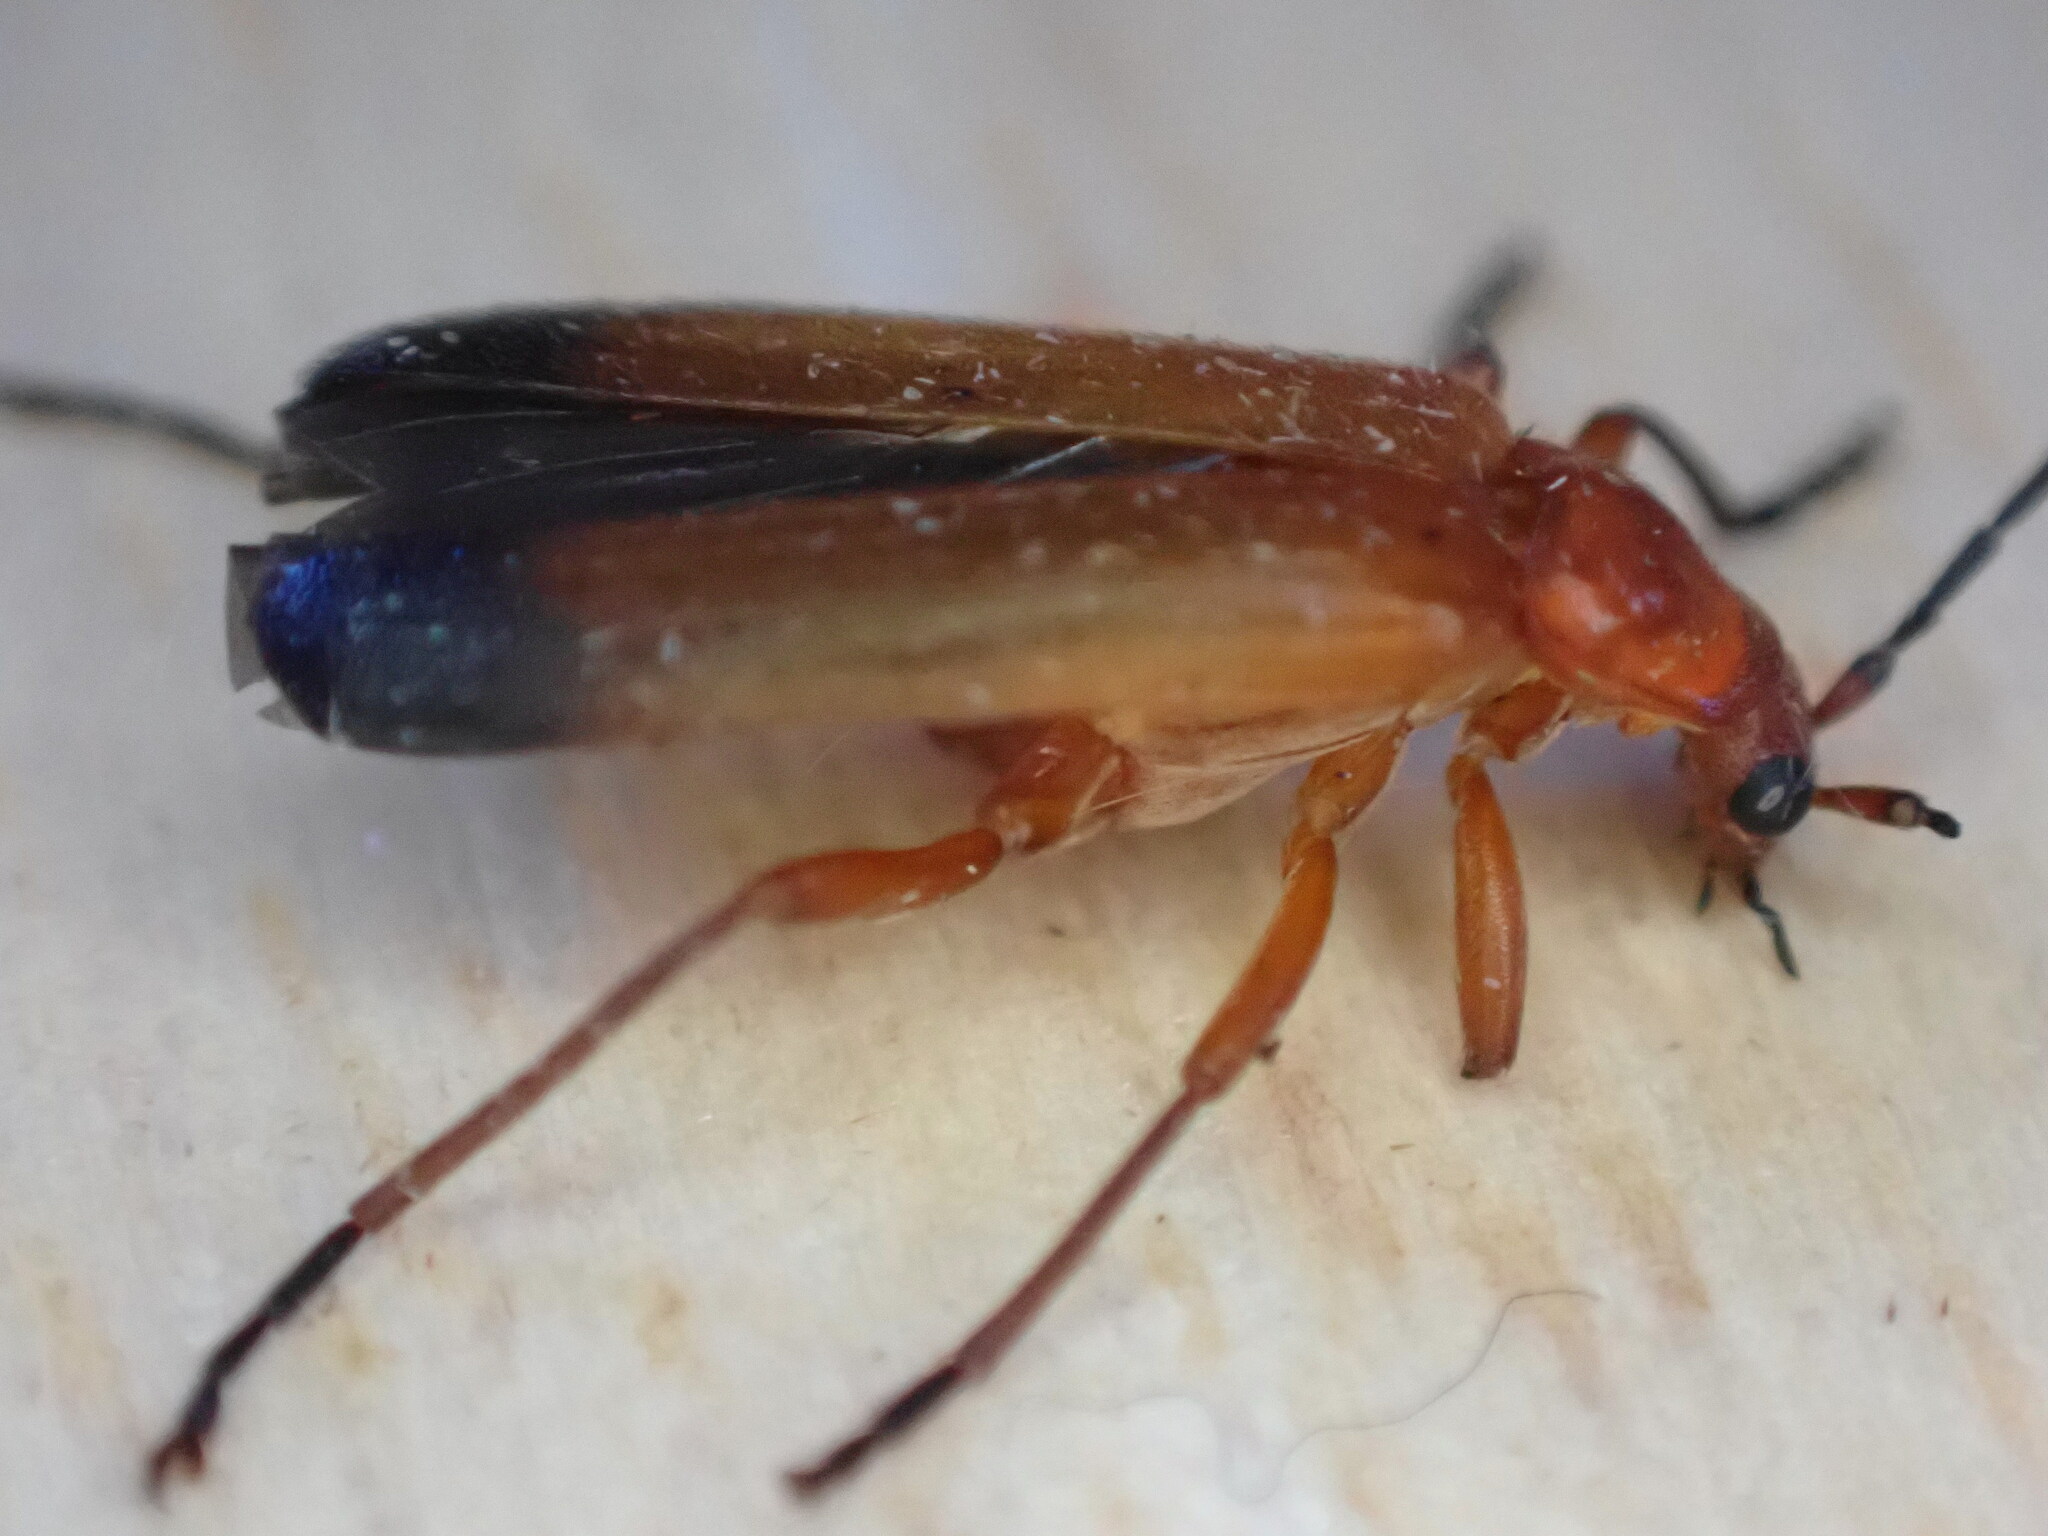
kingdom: Animalia
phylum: Arthropoda
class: Insecta
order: Coleoptera
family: Cantharidae
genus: Rhagonycha
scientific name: Rhagonycha fulva
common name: Common red soldier beetle
